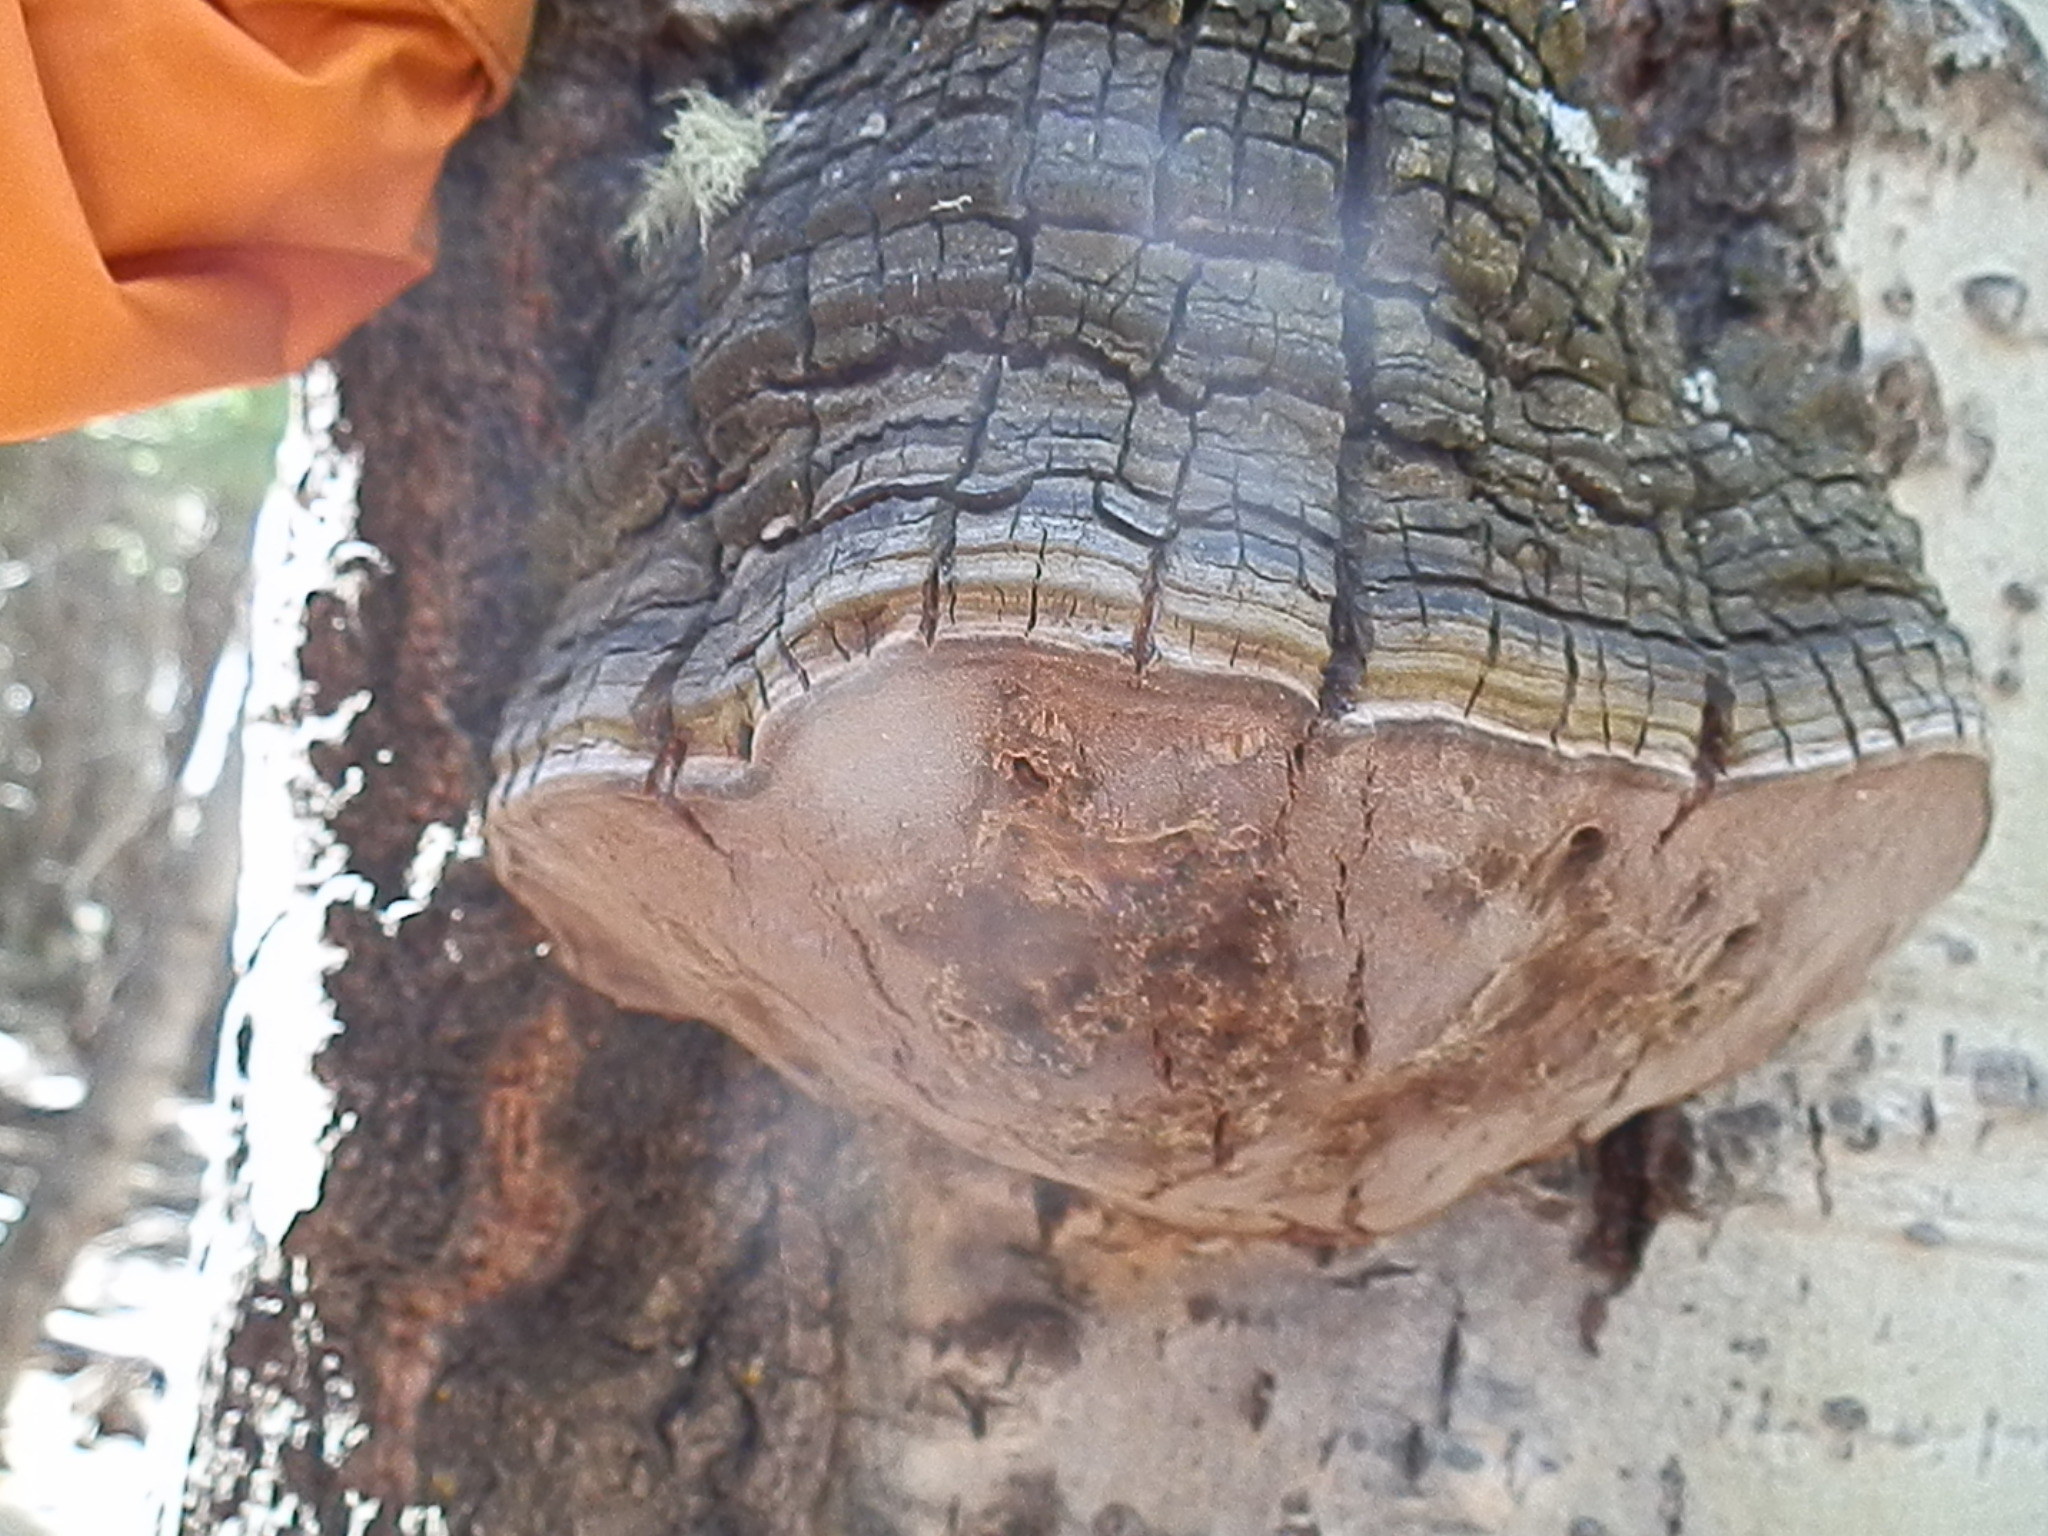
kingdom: Fungi
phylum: Basidiomycota
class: Agaricomycetes
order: Hymenochaetales
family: Hymenochaetaceae
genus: Phellinus
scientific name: Phellinus tremulae
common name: Aspen bracket
